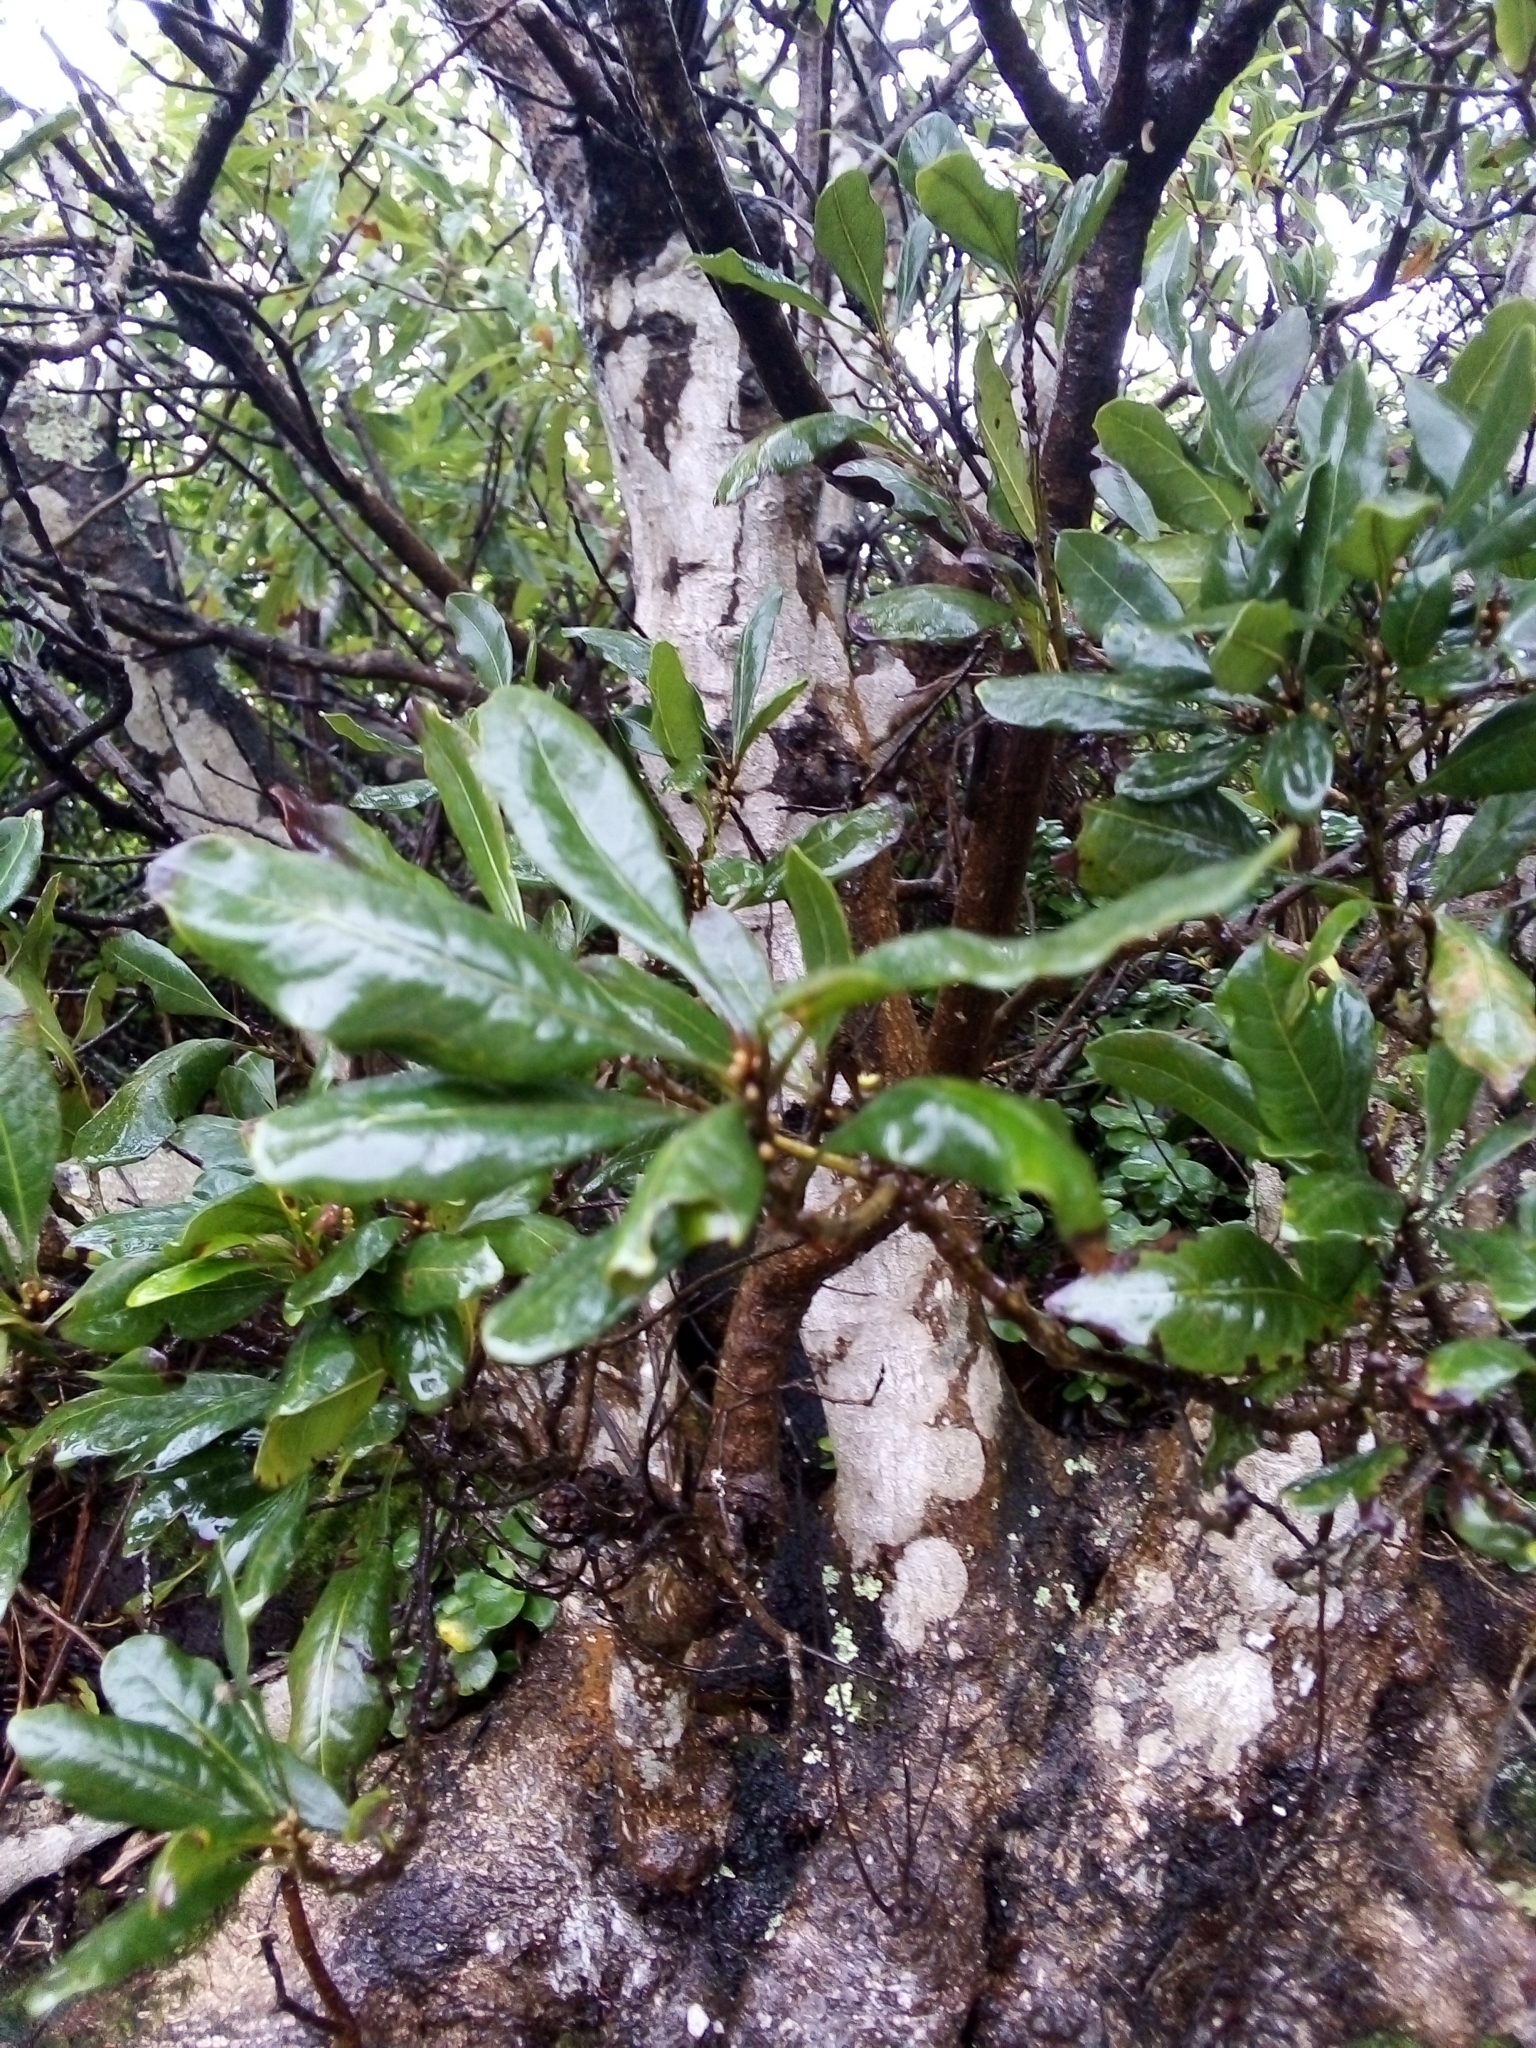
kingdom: Plantae
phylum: Tracheophyta
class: Magnoliopsida
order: Fagales
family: Myricaceae
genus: Morella
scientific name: Morella faya
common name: Firetree
